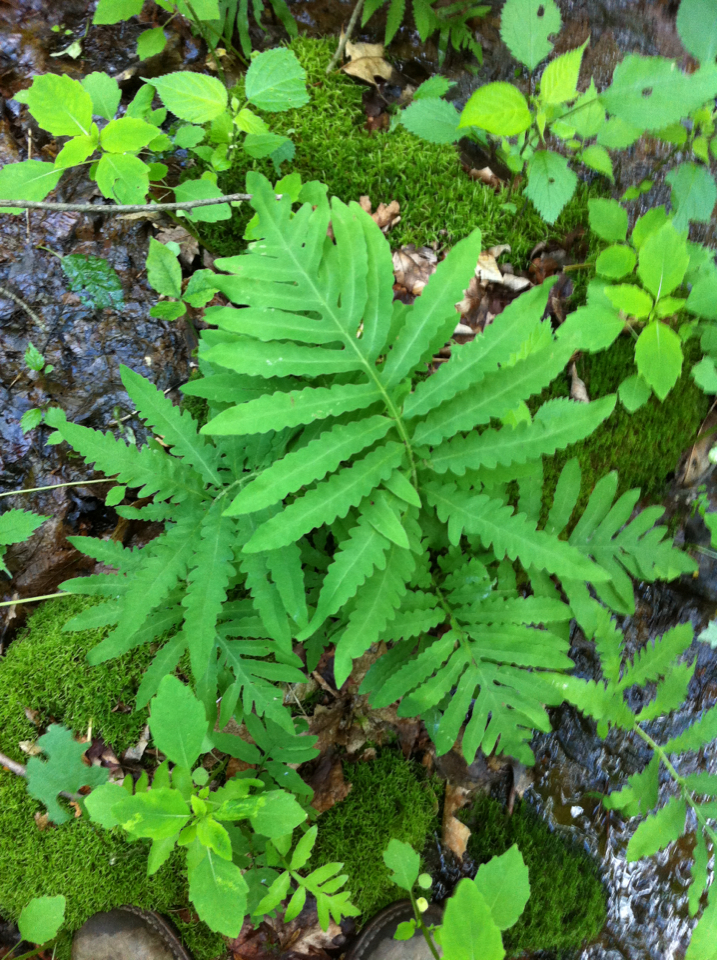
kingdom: Plantae
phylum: Tracheophyta
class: Polypodiopsida
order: Polypodiales
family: Onocleaceae
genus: Onoclea
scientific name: Onoclea sensibilis
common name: Sensitive fern
